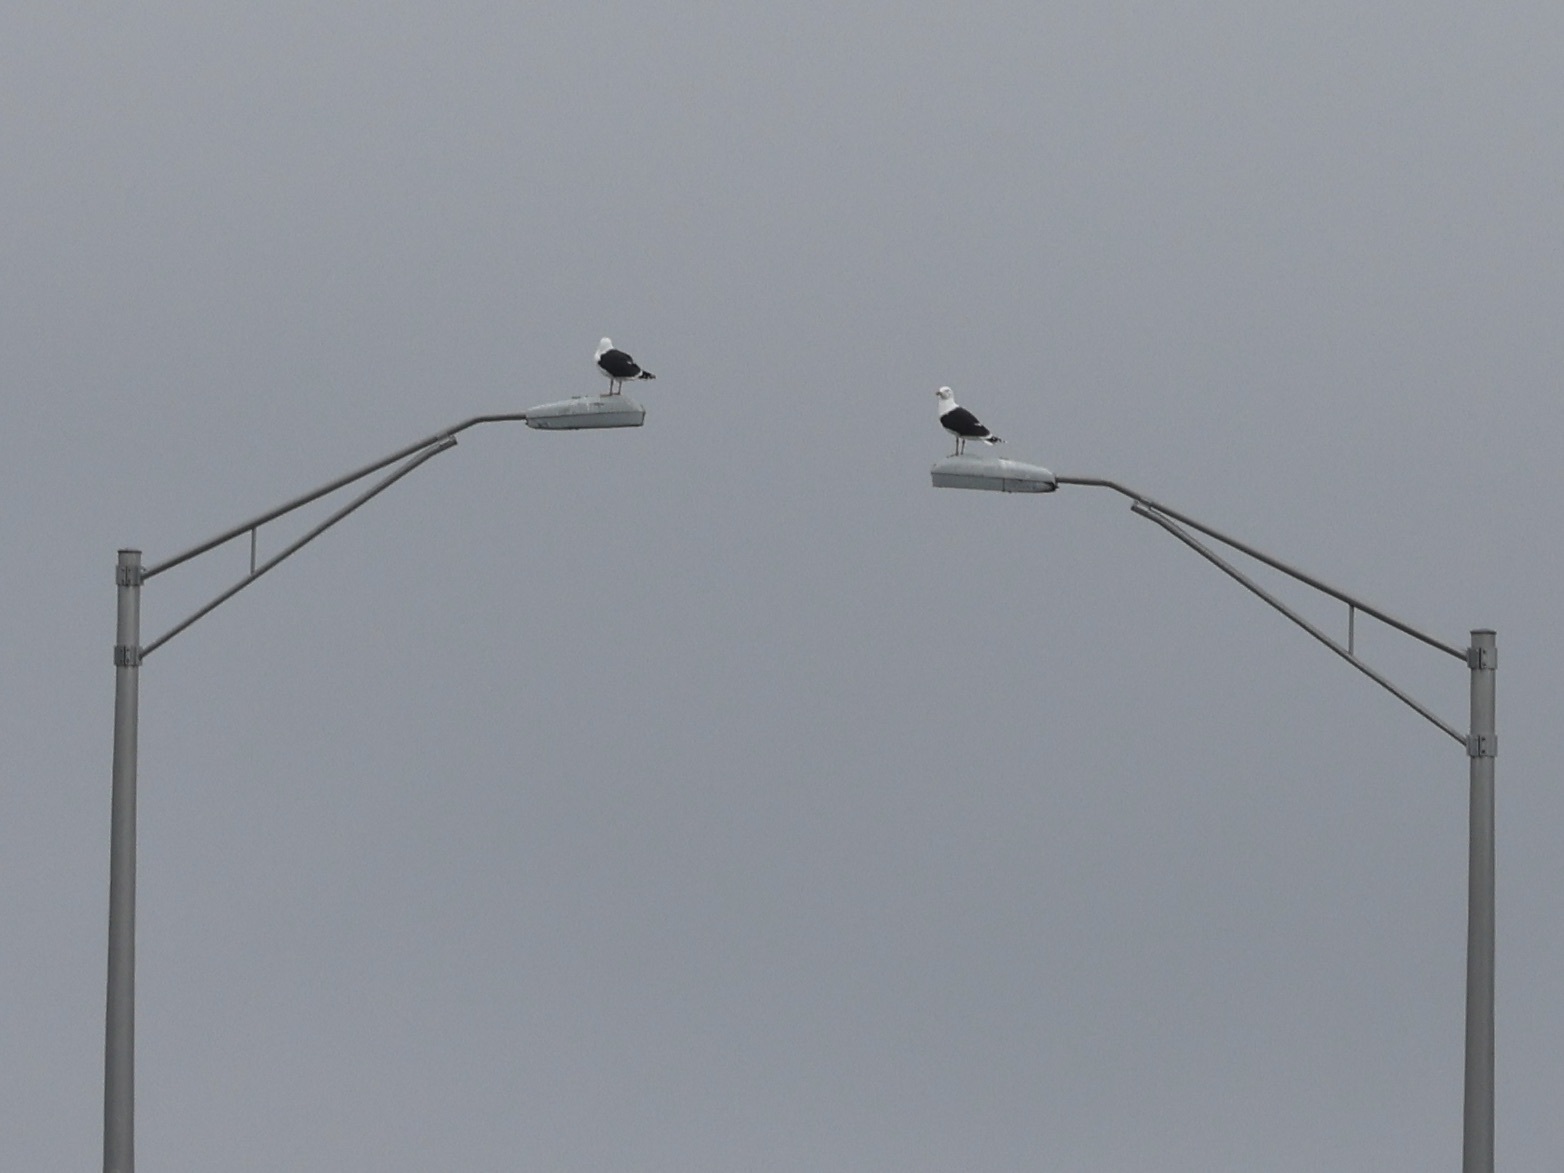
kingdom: Animalia
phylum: Chordata
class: Aves
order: Charadriiformes
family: Laridae
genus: Larus
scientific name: Larus marinus
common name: Great black-backed gull
